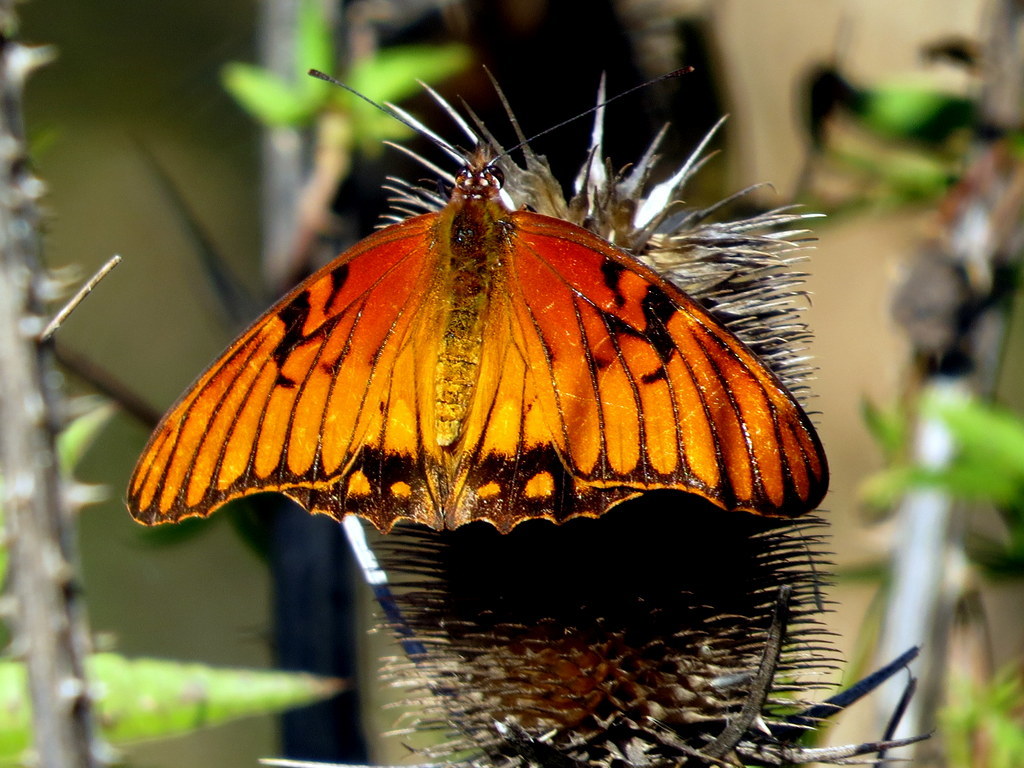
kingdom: Animalia
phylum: Arthropoda
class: Insecta
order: Lepidoptera
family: Nymphalidae
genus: Dione
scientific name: Dione moneta
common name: Mexican silverspot
